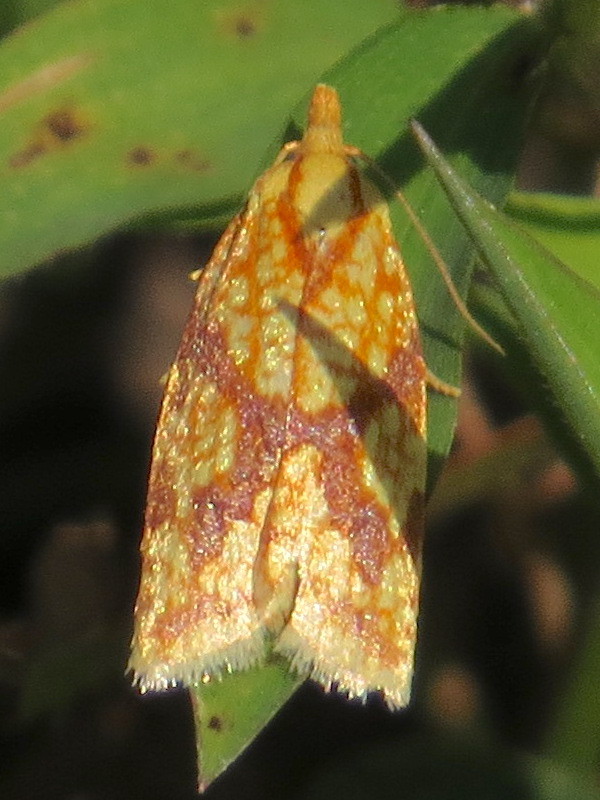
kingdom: Animalia
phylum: Arthropoda
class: Insecta
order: Lepidoptera
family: Tortricidae
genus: Sparganothis
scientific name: Sparganothis sulfureana
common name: Sparganothis fruitworm moth
